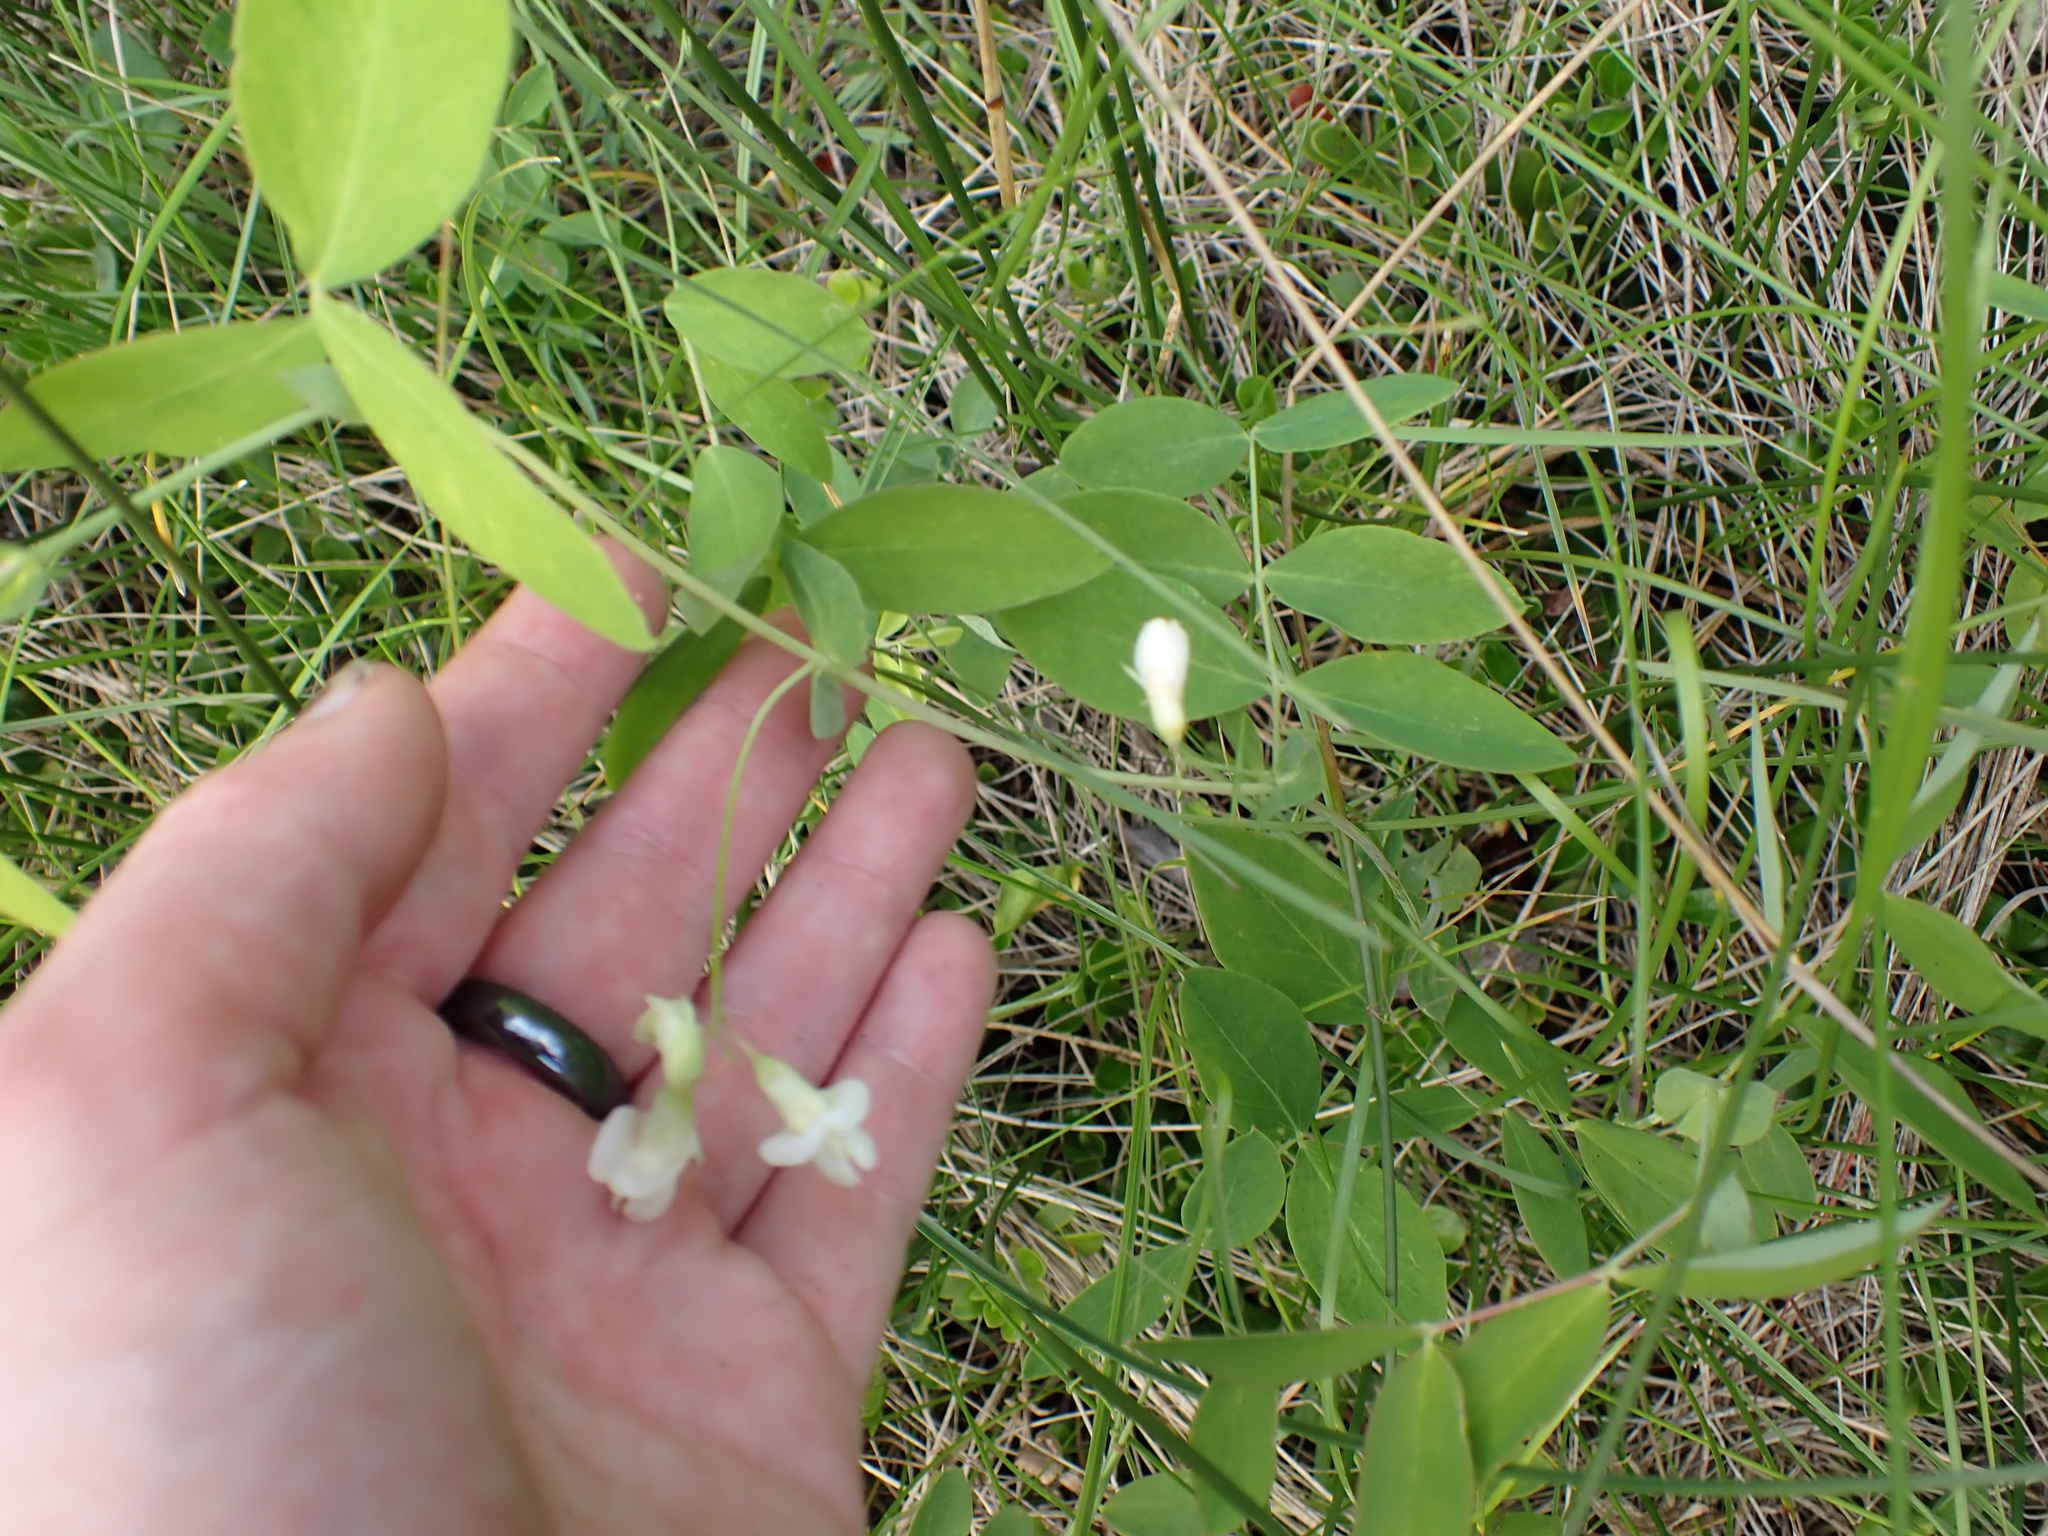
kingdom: Plantae
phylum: Tracheophyta
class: Magnoliopsida
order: Fabales
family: Fabaceae
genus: Lathyrus
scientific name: Lathyrus ochroleucus
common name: Pale vetchling
